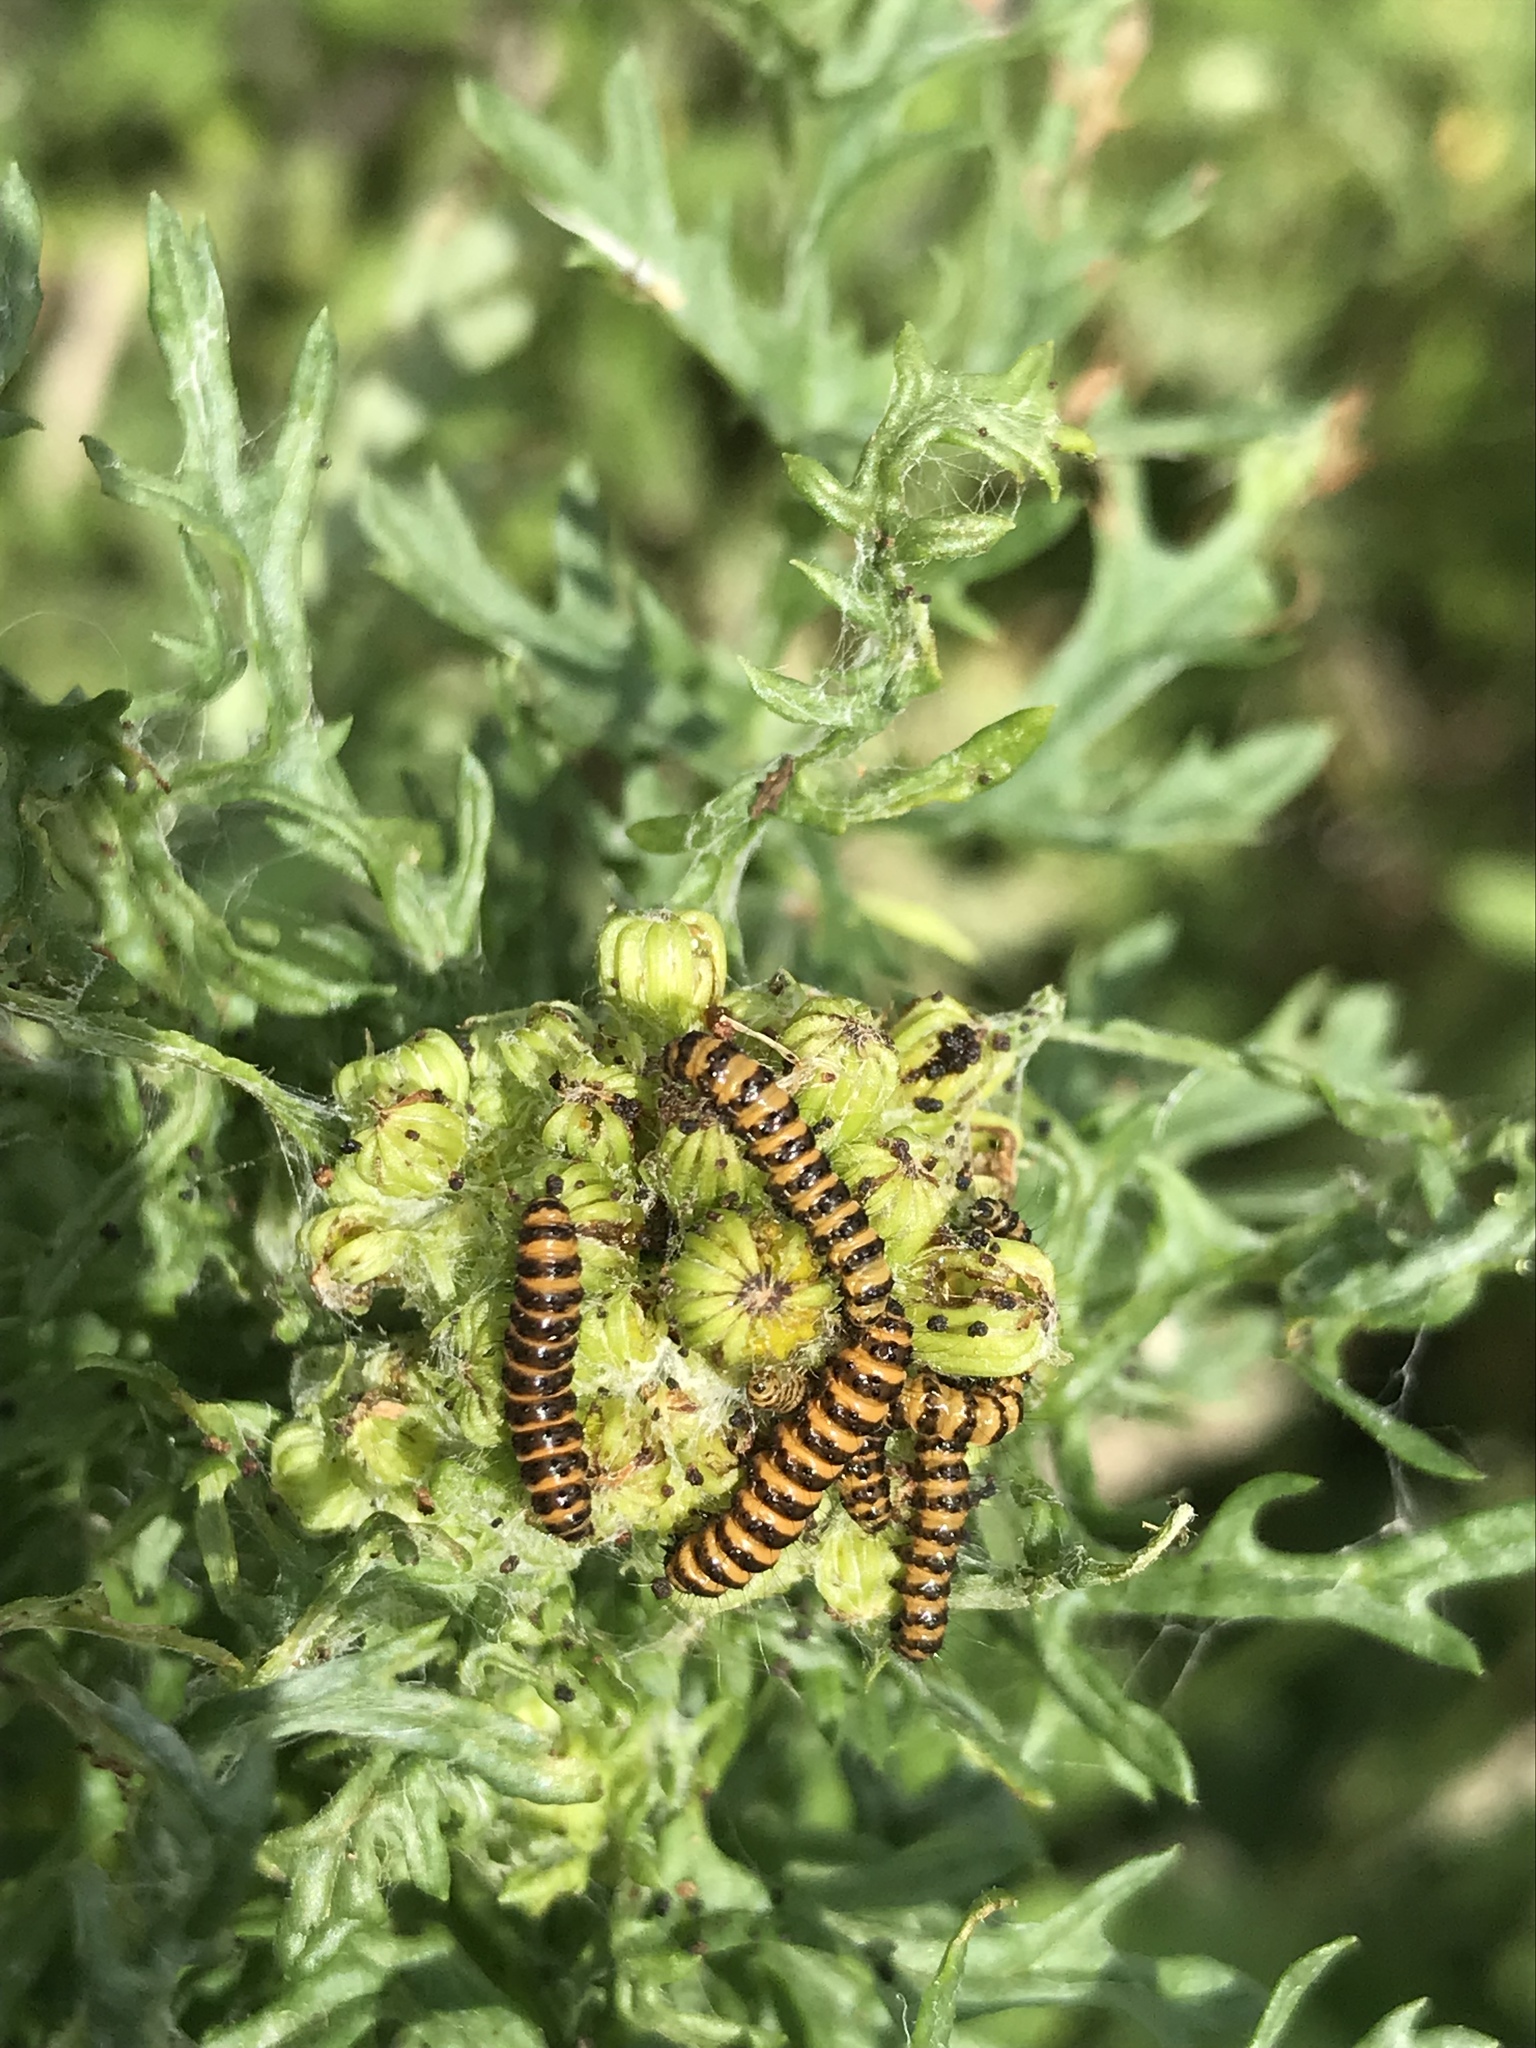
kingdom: Animalia
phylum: Arthropoda
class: Insecta
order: Lepidoptera
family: Erebidae
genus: Tyria
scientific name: Tyria jacobaeae
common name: Cinnabar
